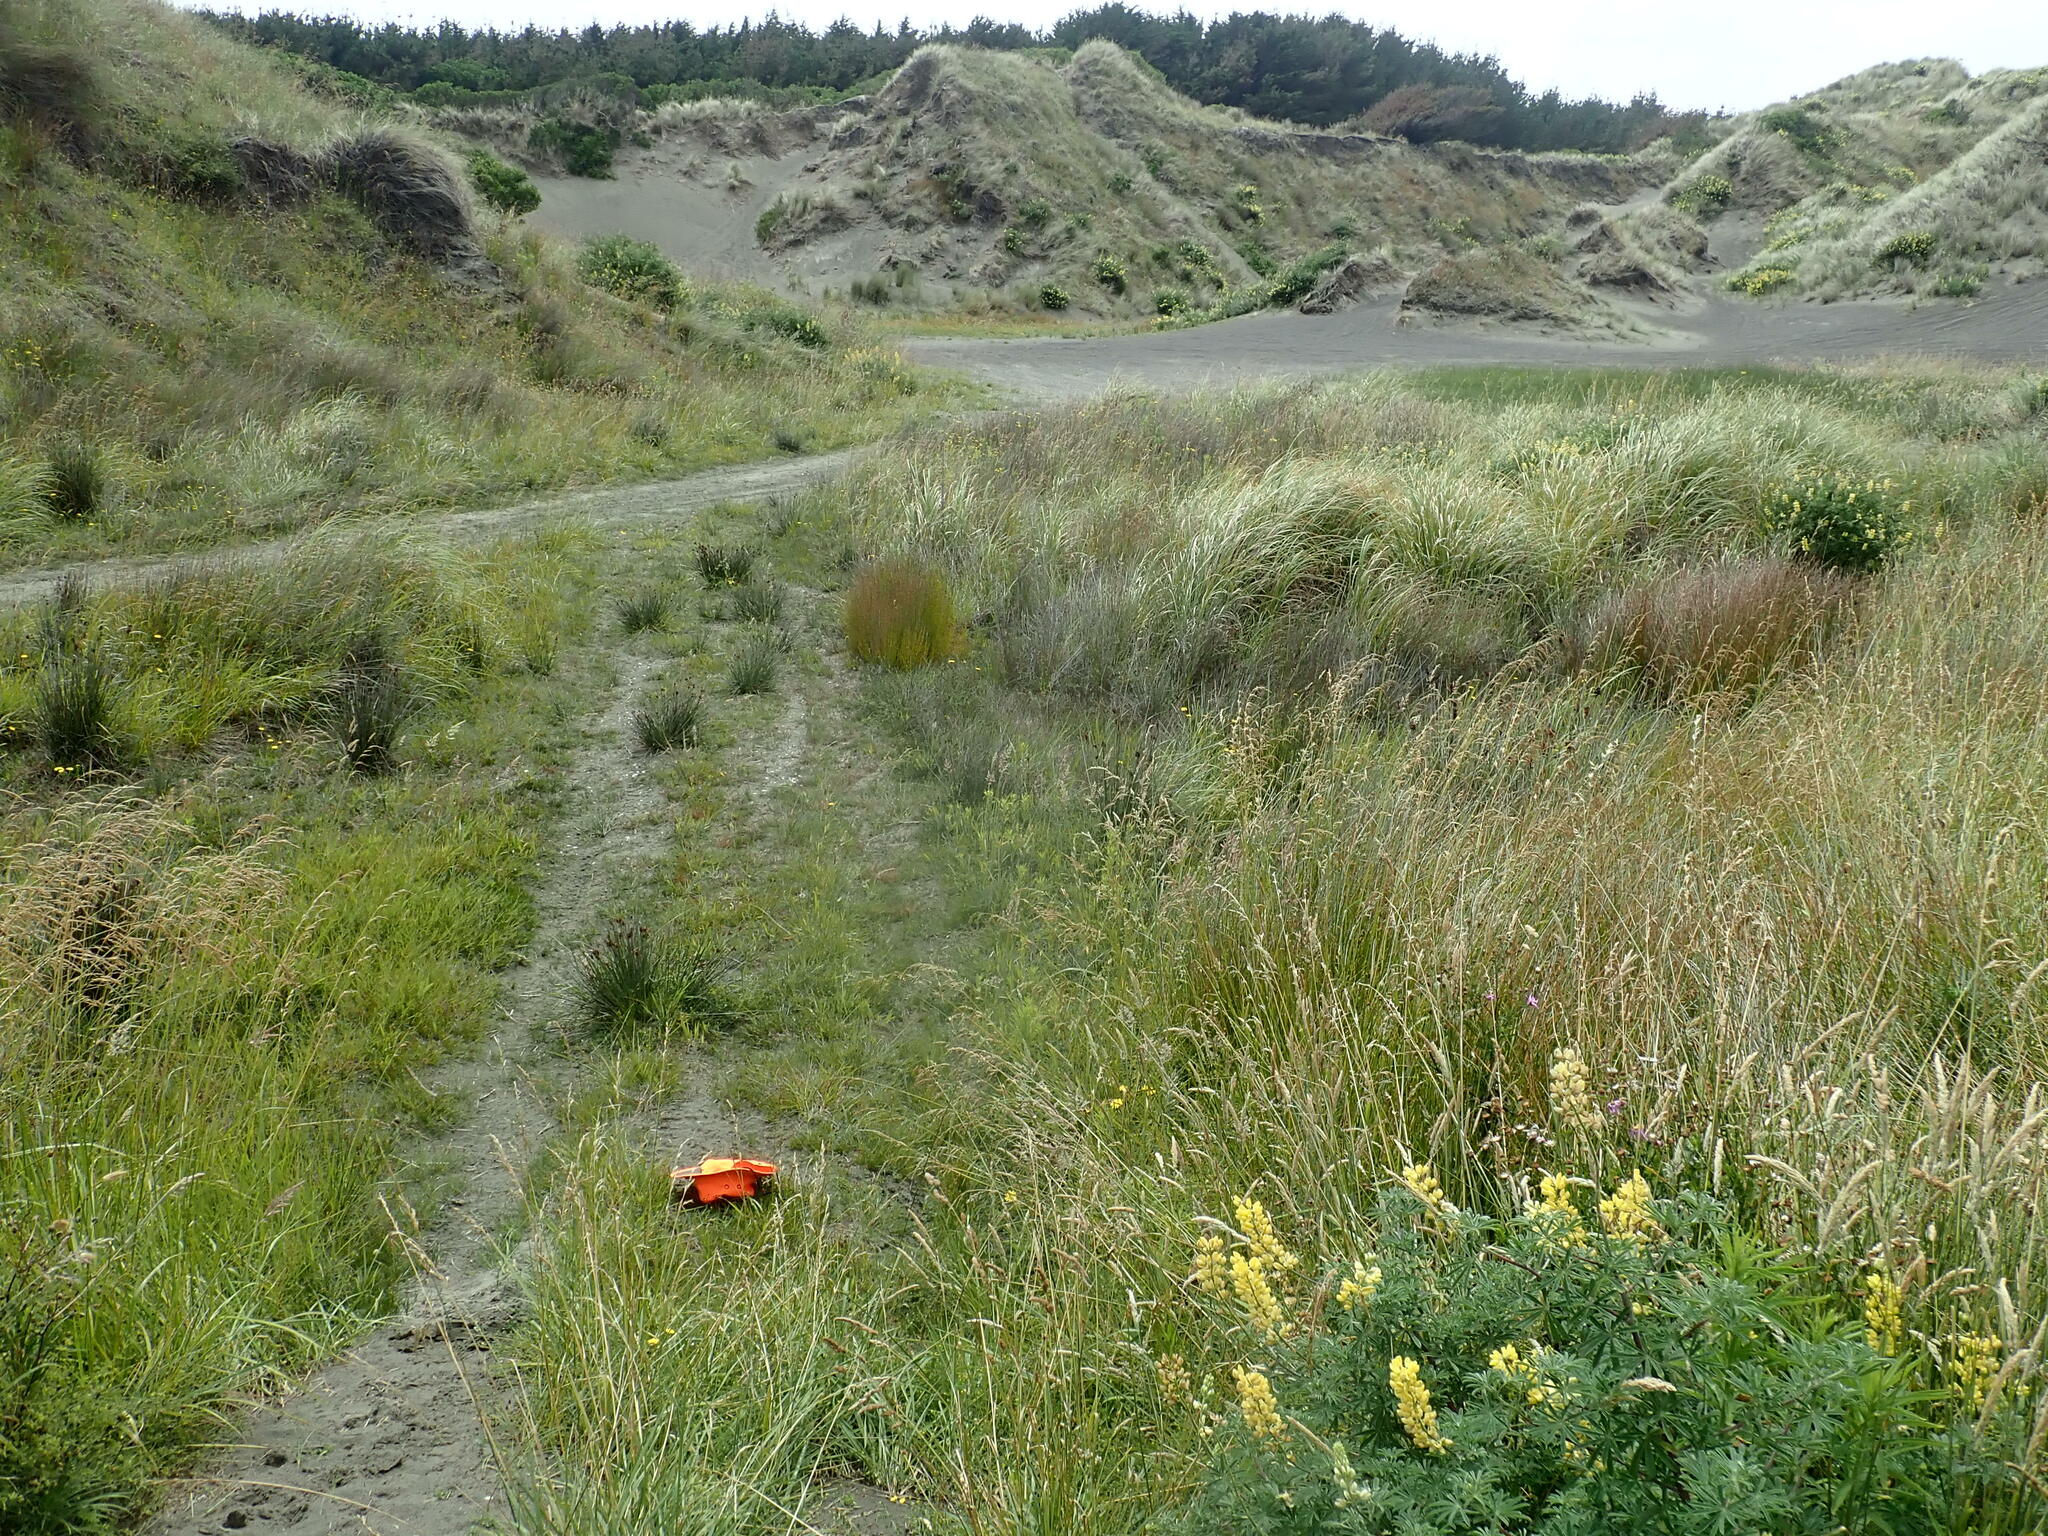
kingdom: Plantae
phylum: Tracheophyta
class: Liliopsida
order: Poales
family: Juncaceae
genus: Juncus
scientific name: Juncus articulatus
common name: Jointed rush
